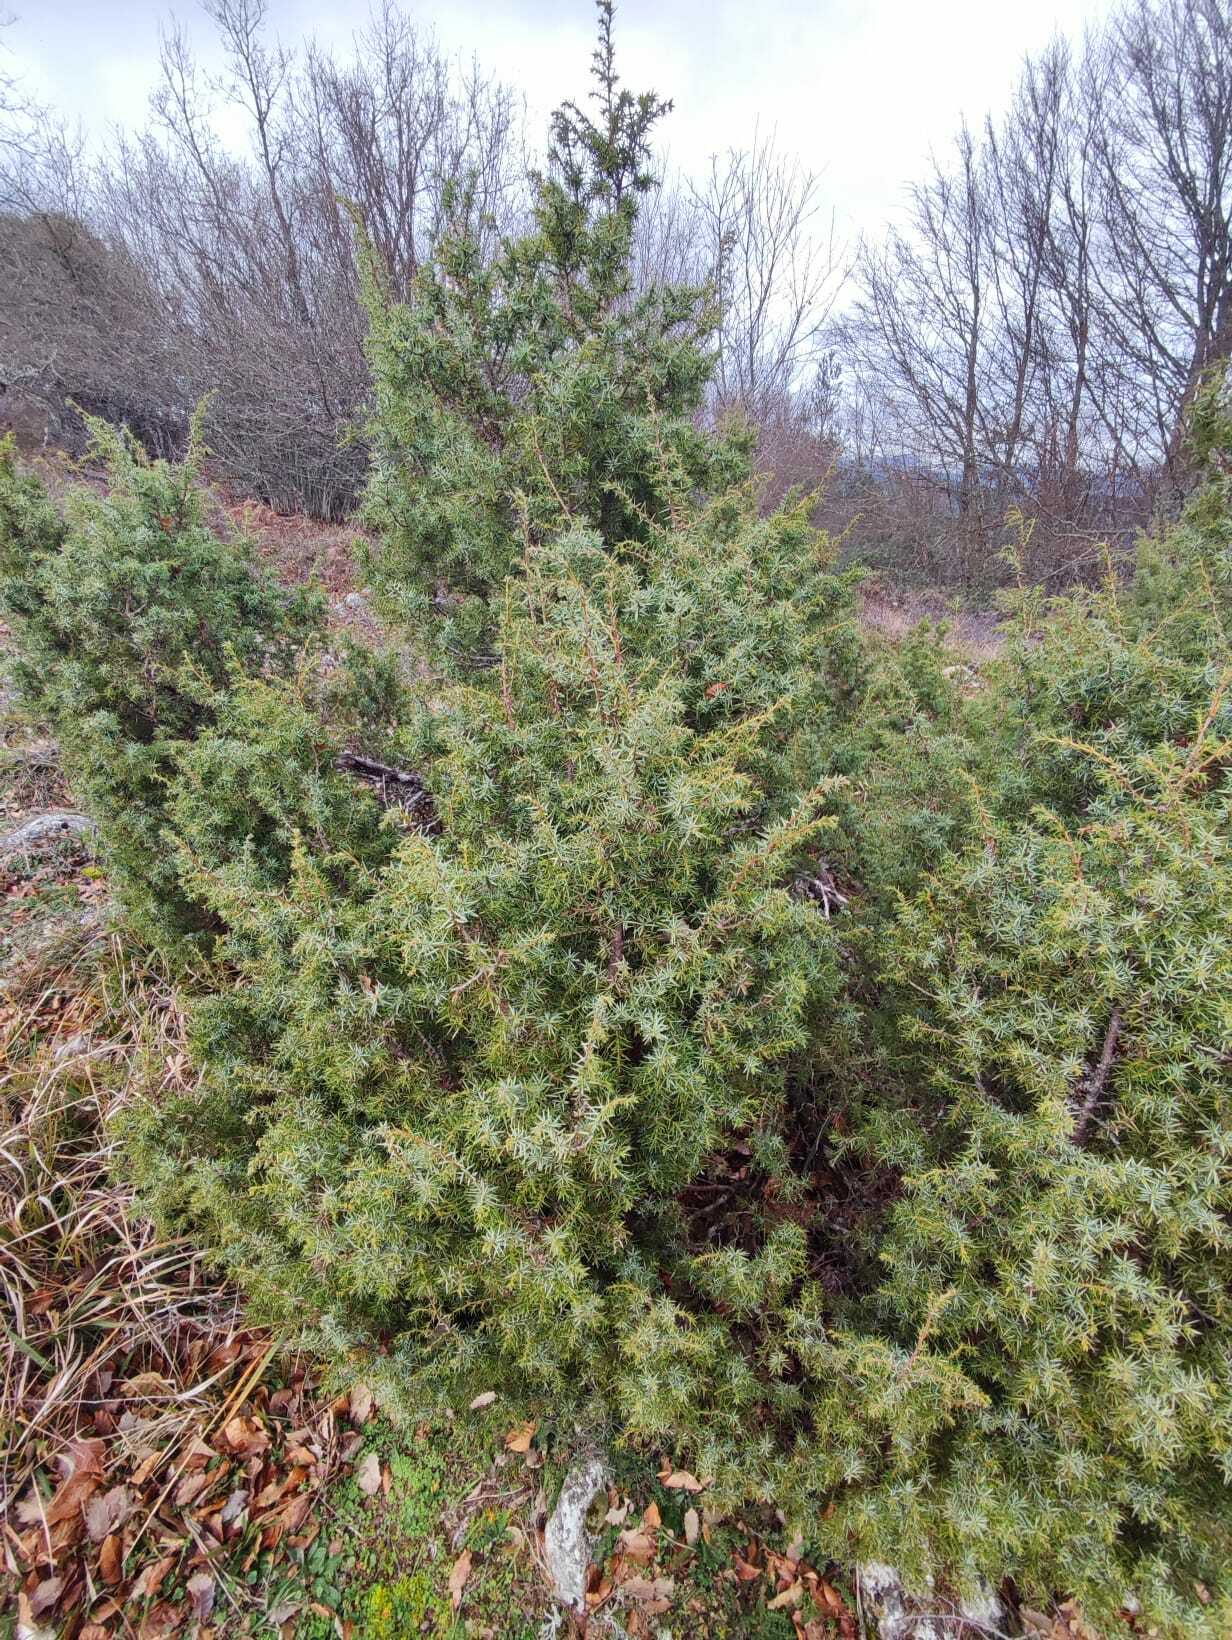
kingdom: Plantae
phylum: Tracheophyta
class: Pinopsida
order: Pinales
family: Cupressaceae
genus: Juniperus
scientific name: Juniperus communis
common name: Common juniper
